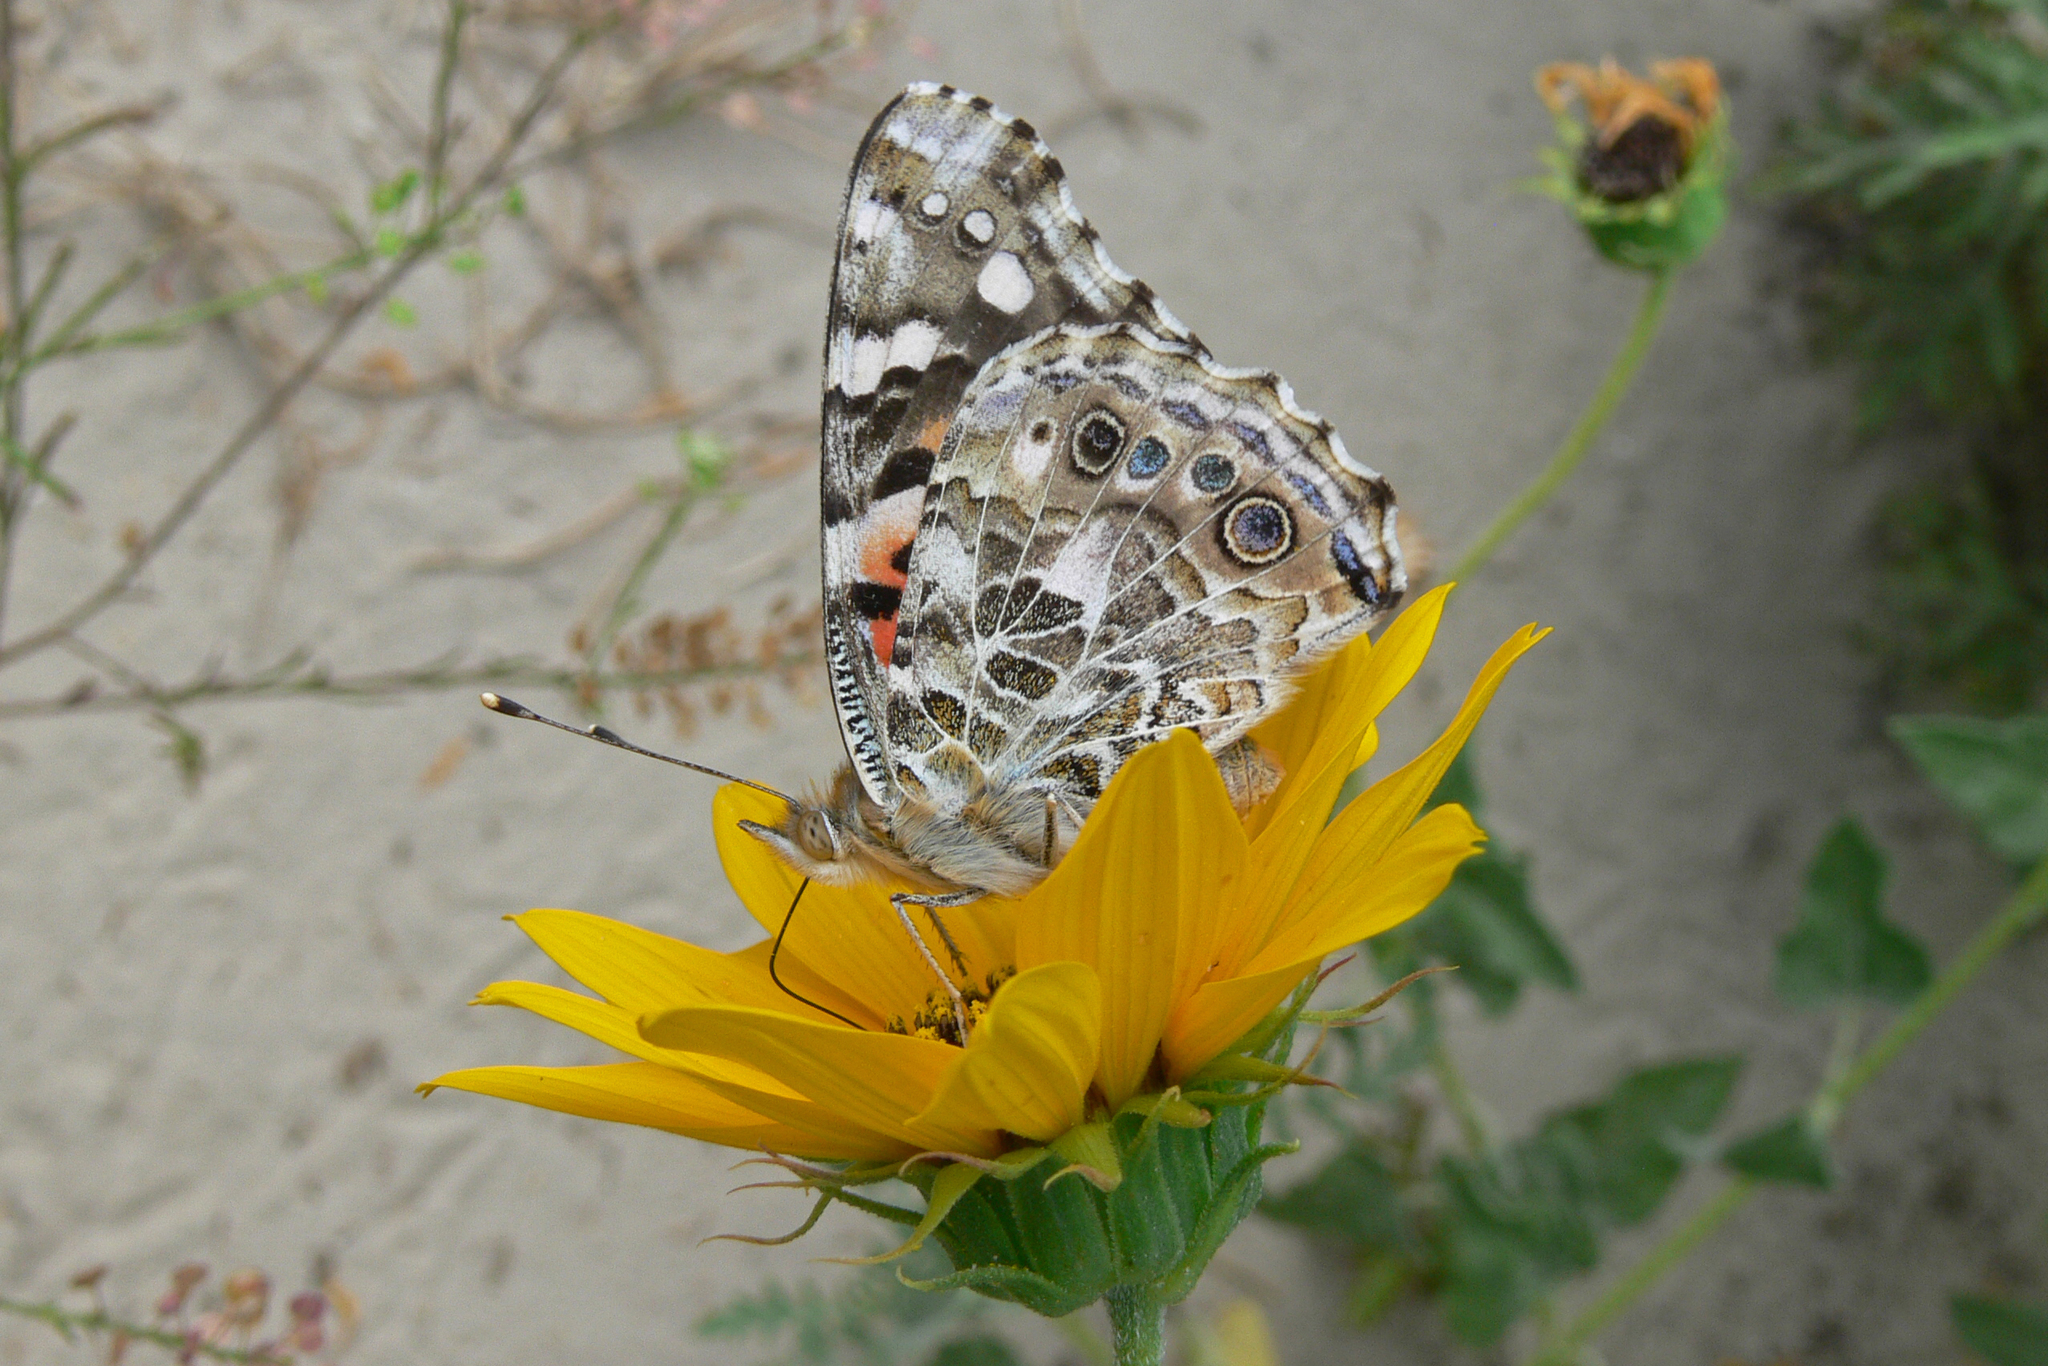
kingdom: Animalia
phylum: Arthropoda
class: Insecta
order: Lepidoptera
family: Nymphalidae
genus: Vanessa
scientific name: Vanessa cardui
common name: Painted lady
